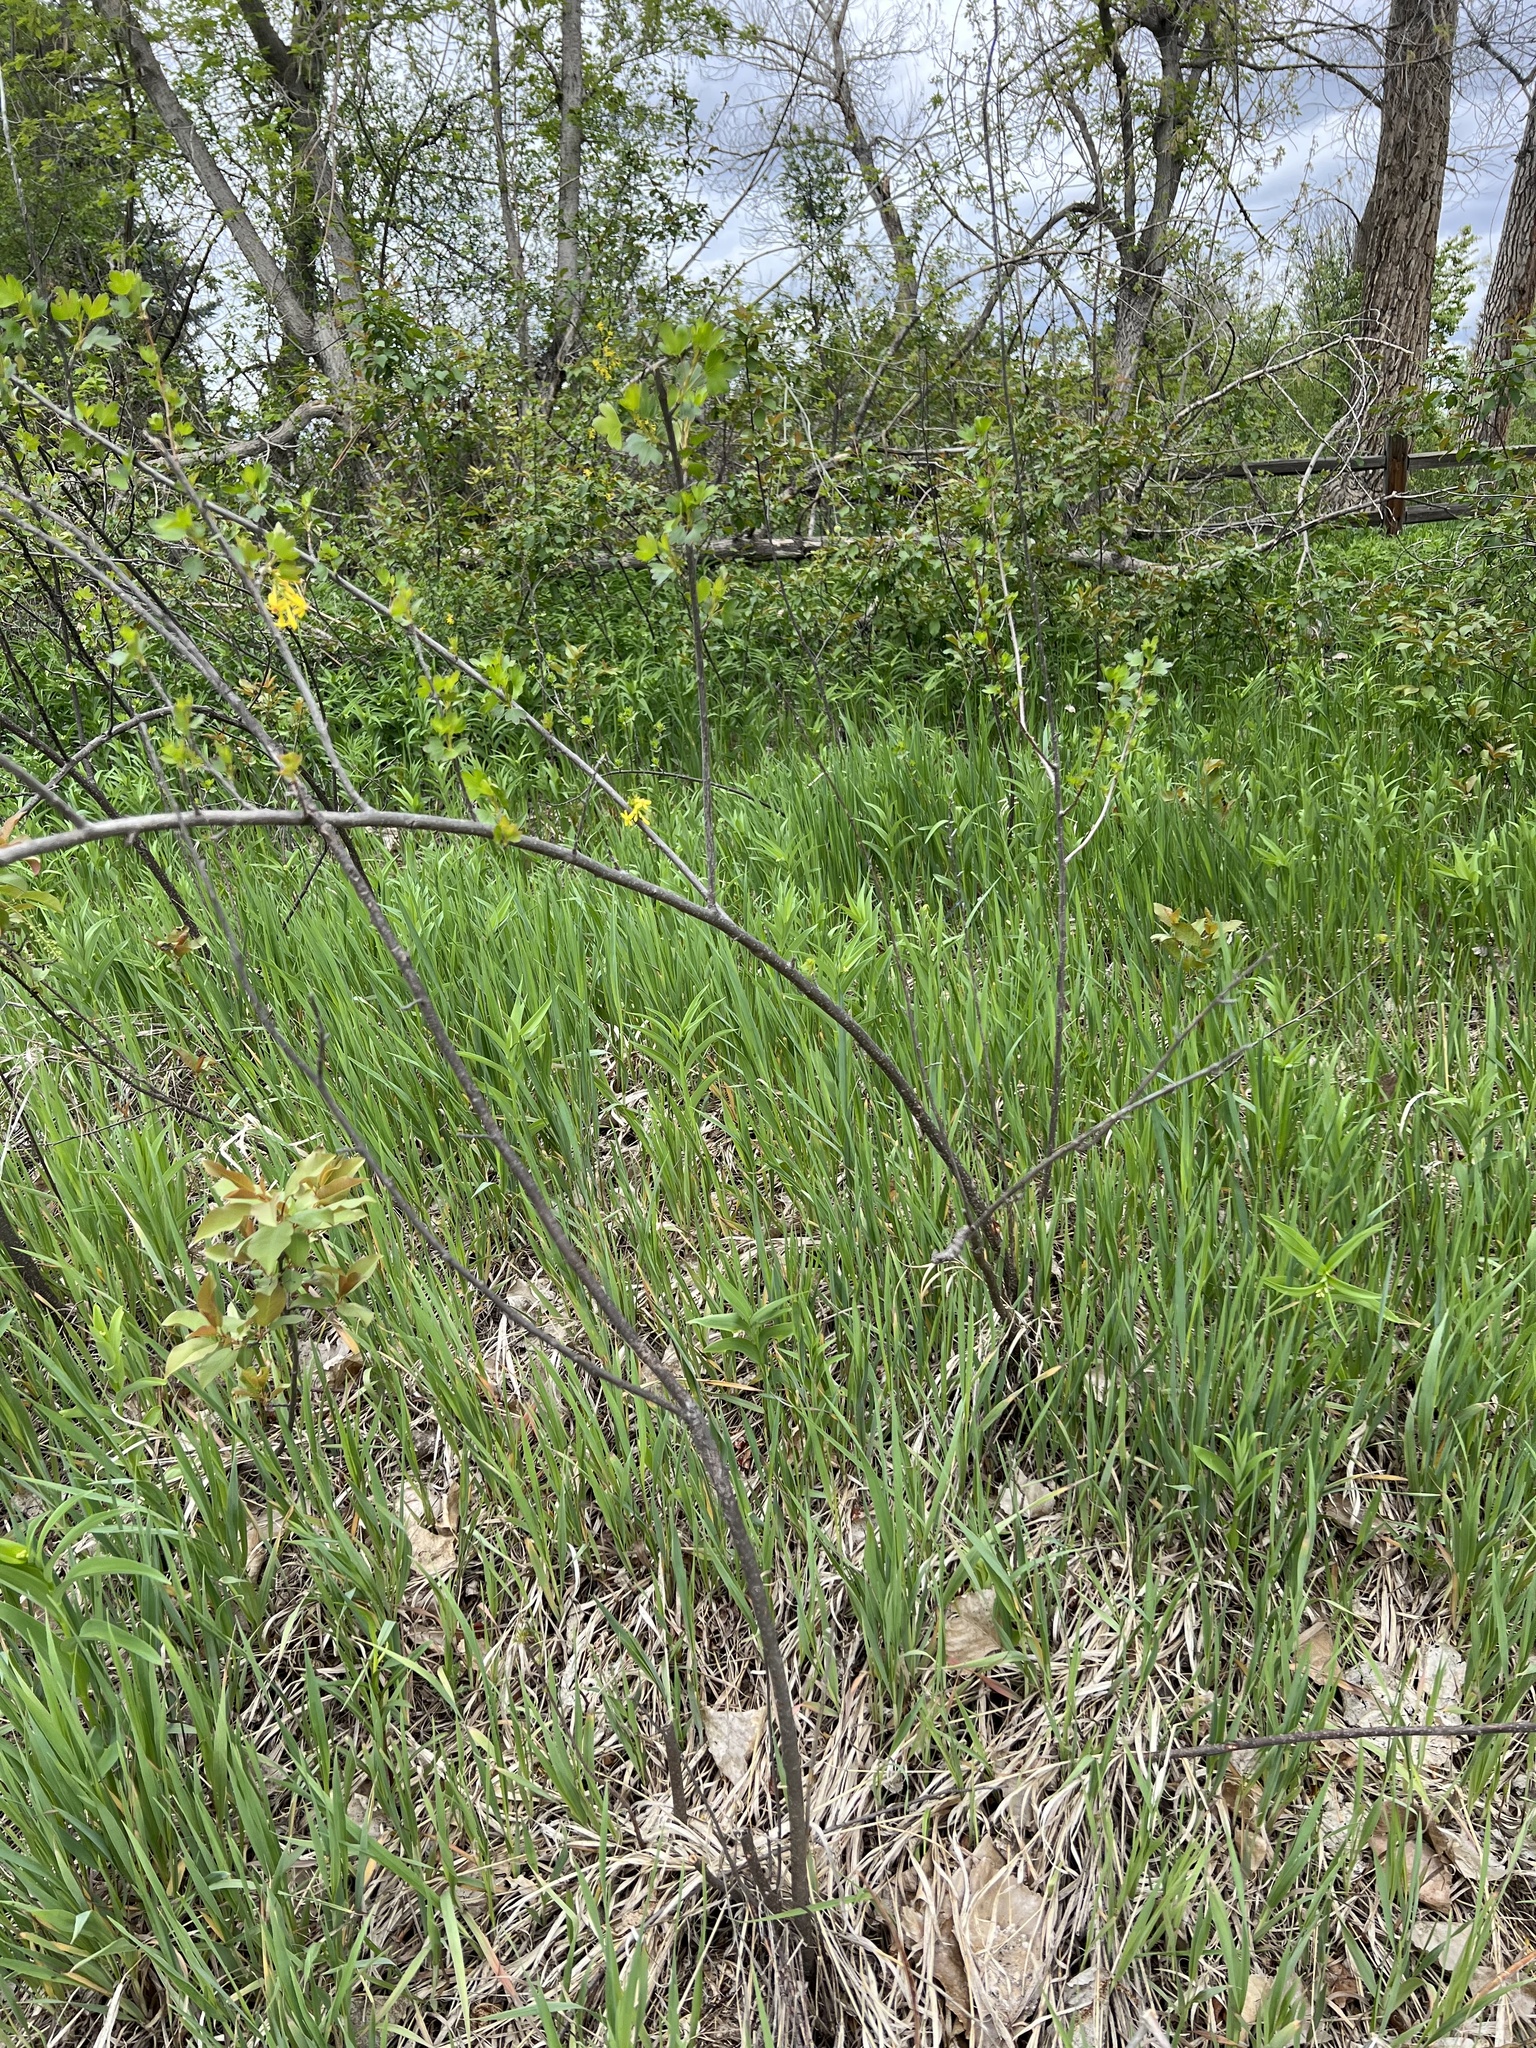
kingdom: Plantae
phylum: Tracheophyta
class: Magnoliopsida
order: Saxifragales
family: Grossulariaceae
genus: Ribes
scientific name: Ribes aureum
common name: Golden currant
